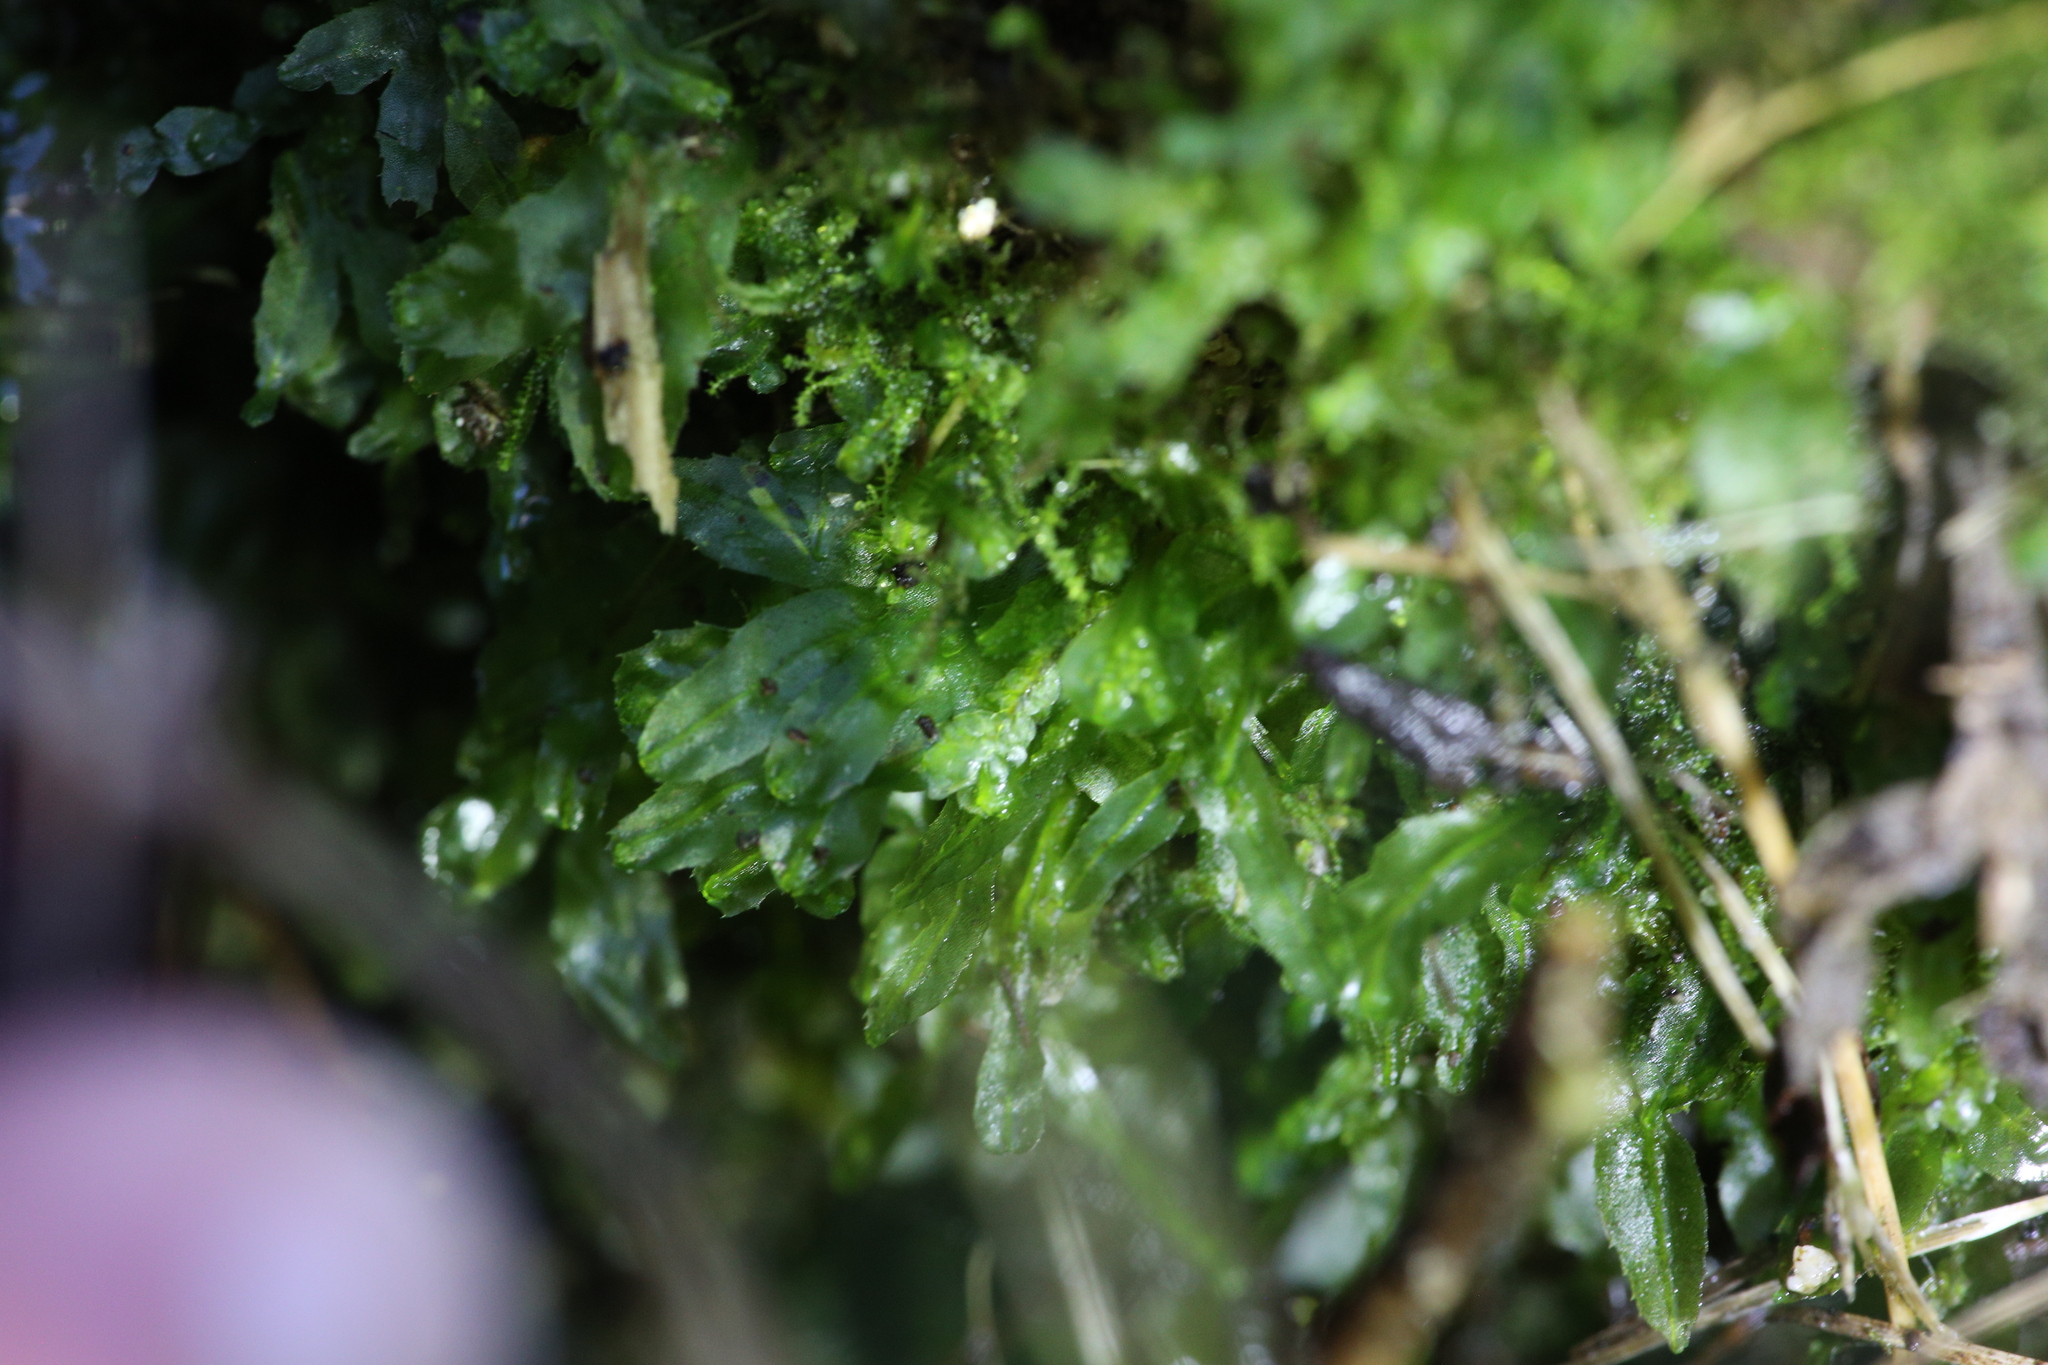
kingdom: Plantae
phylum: Marchantiophyta
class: Jungermanniopsida
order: Pallaviciniales
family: Pallaviciniaceae
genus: Symphyogyna
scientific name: Symphyogyna podophylla
